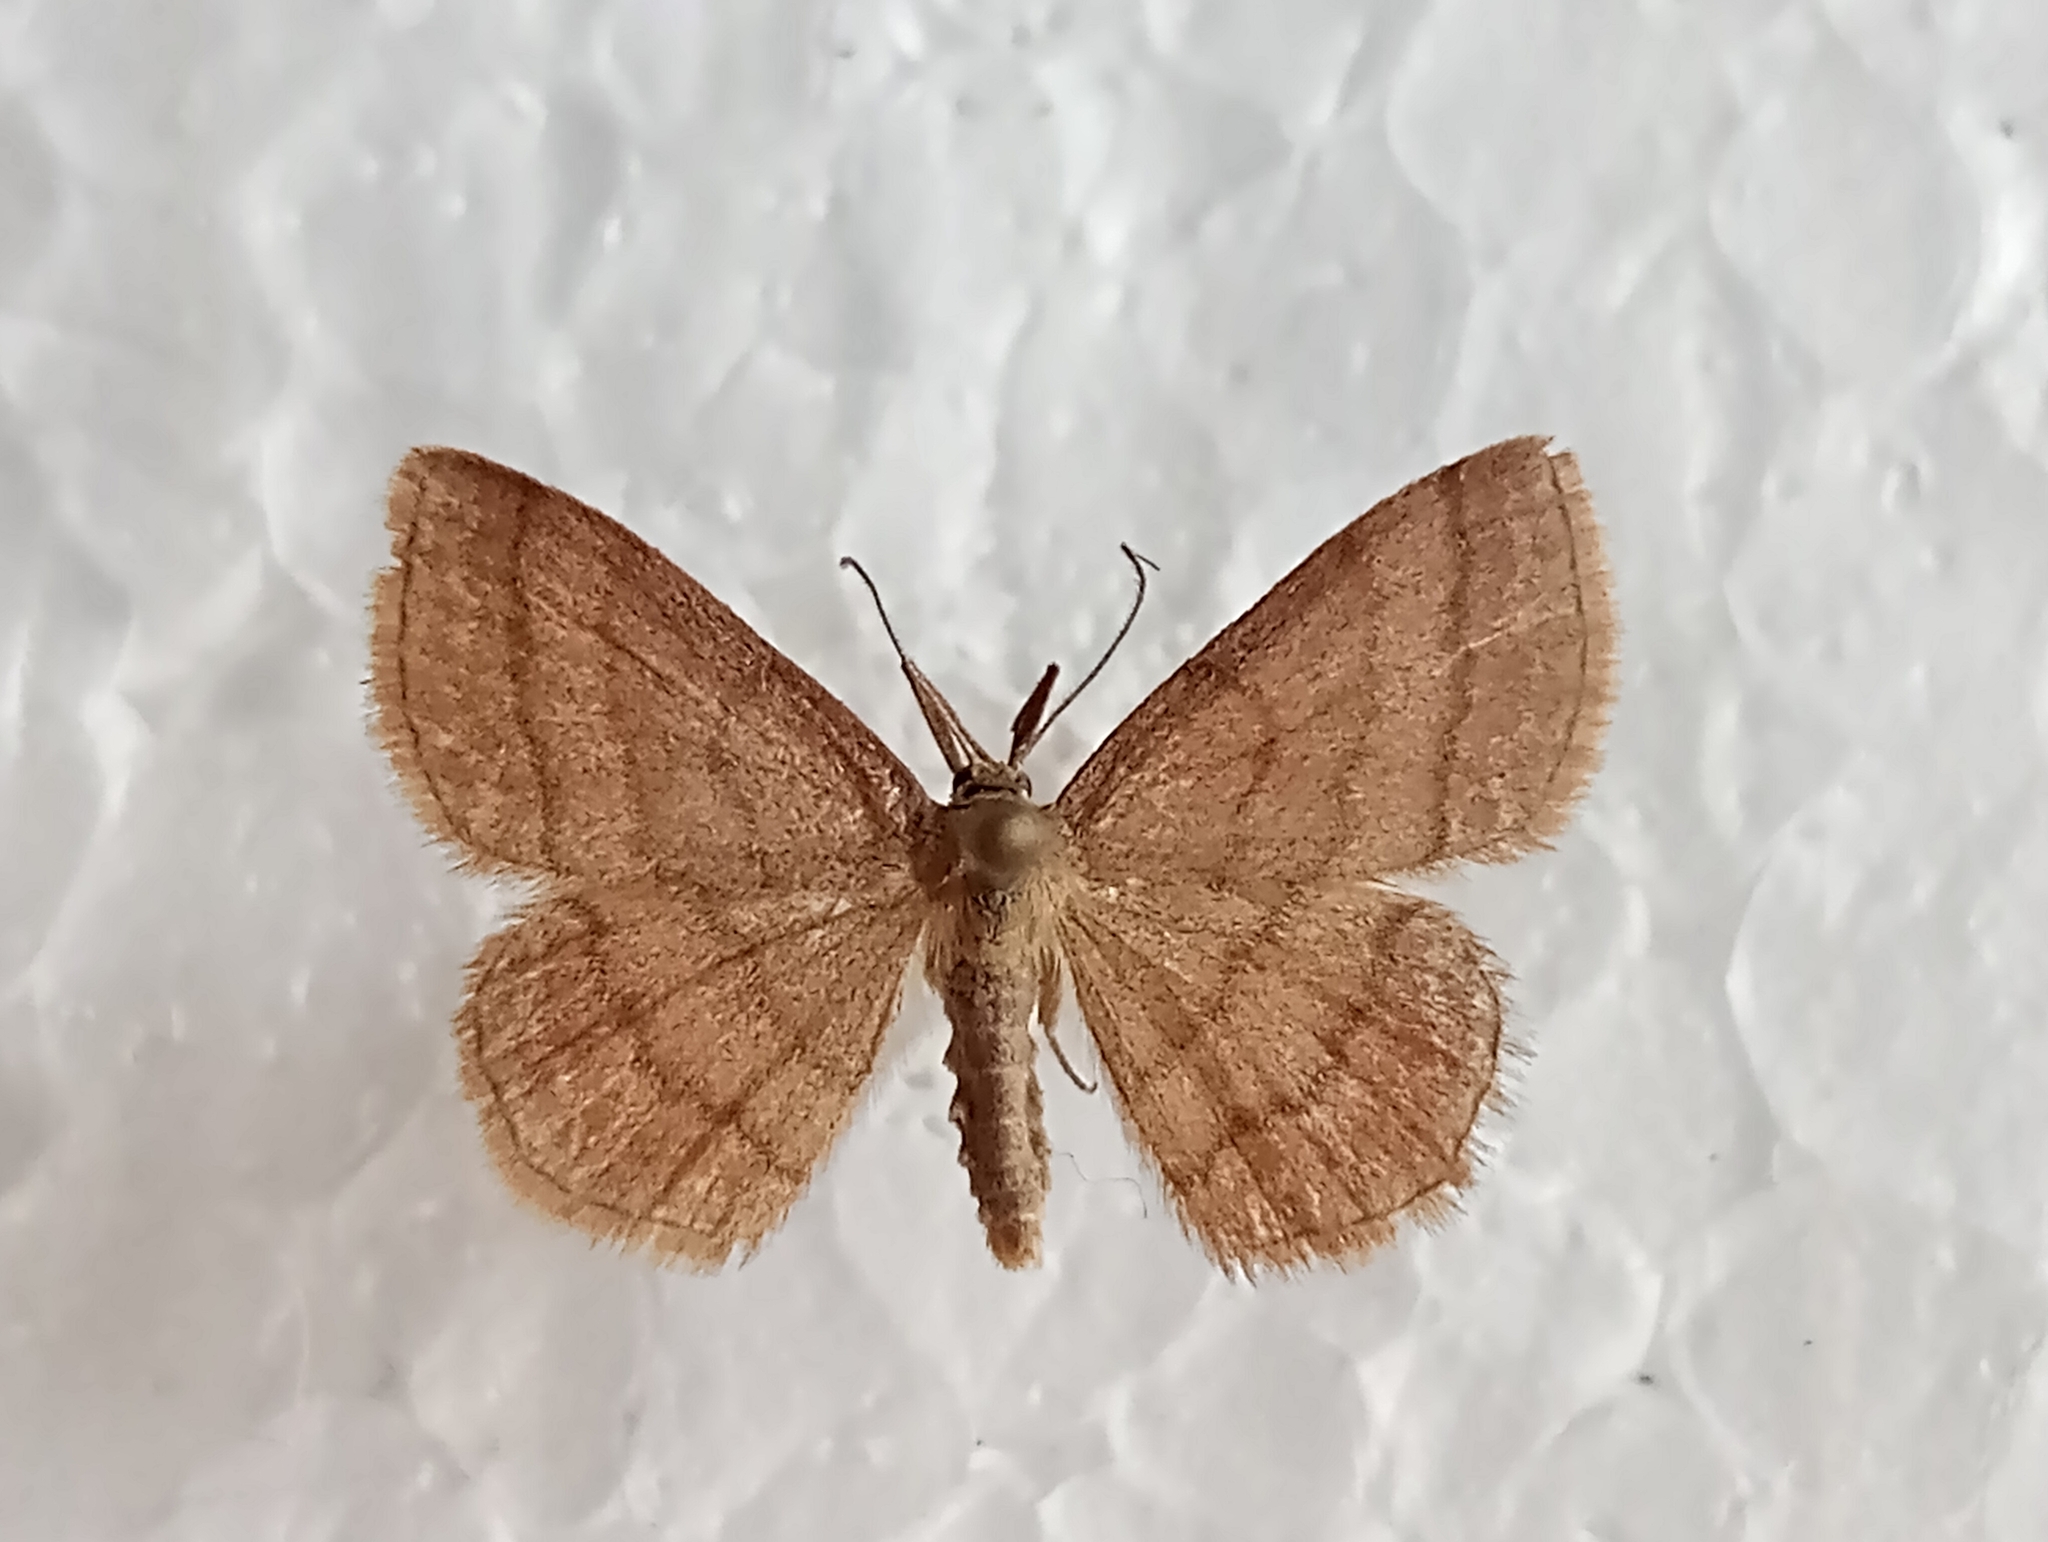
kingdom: Animalia
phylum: Arthropoda
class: Insecta
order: Lepidoptera
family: Geometridae
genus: Scopula
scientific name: Scopula rubiginata
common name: Tawny wave
